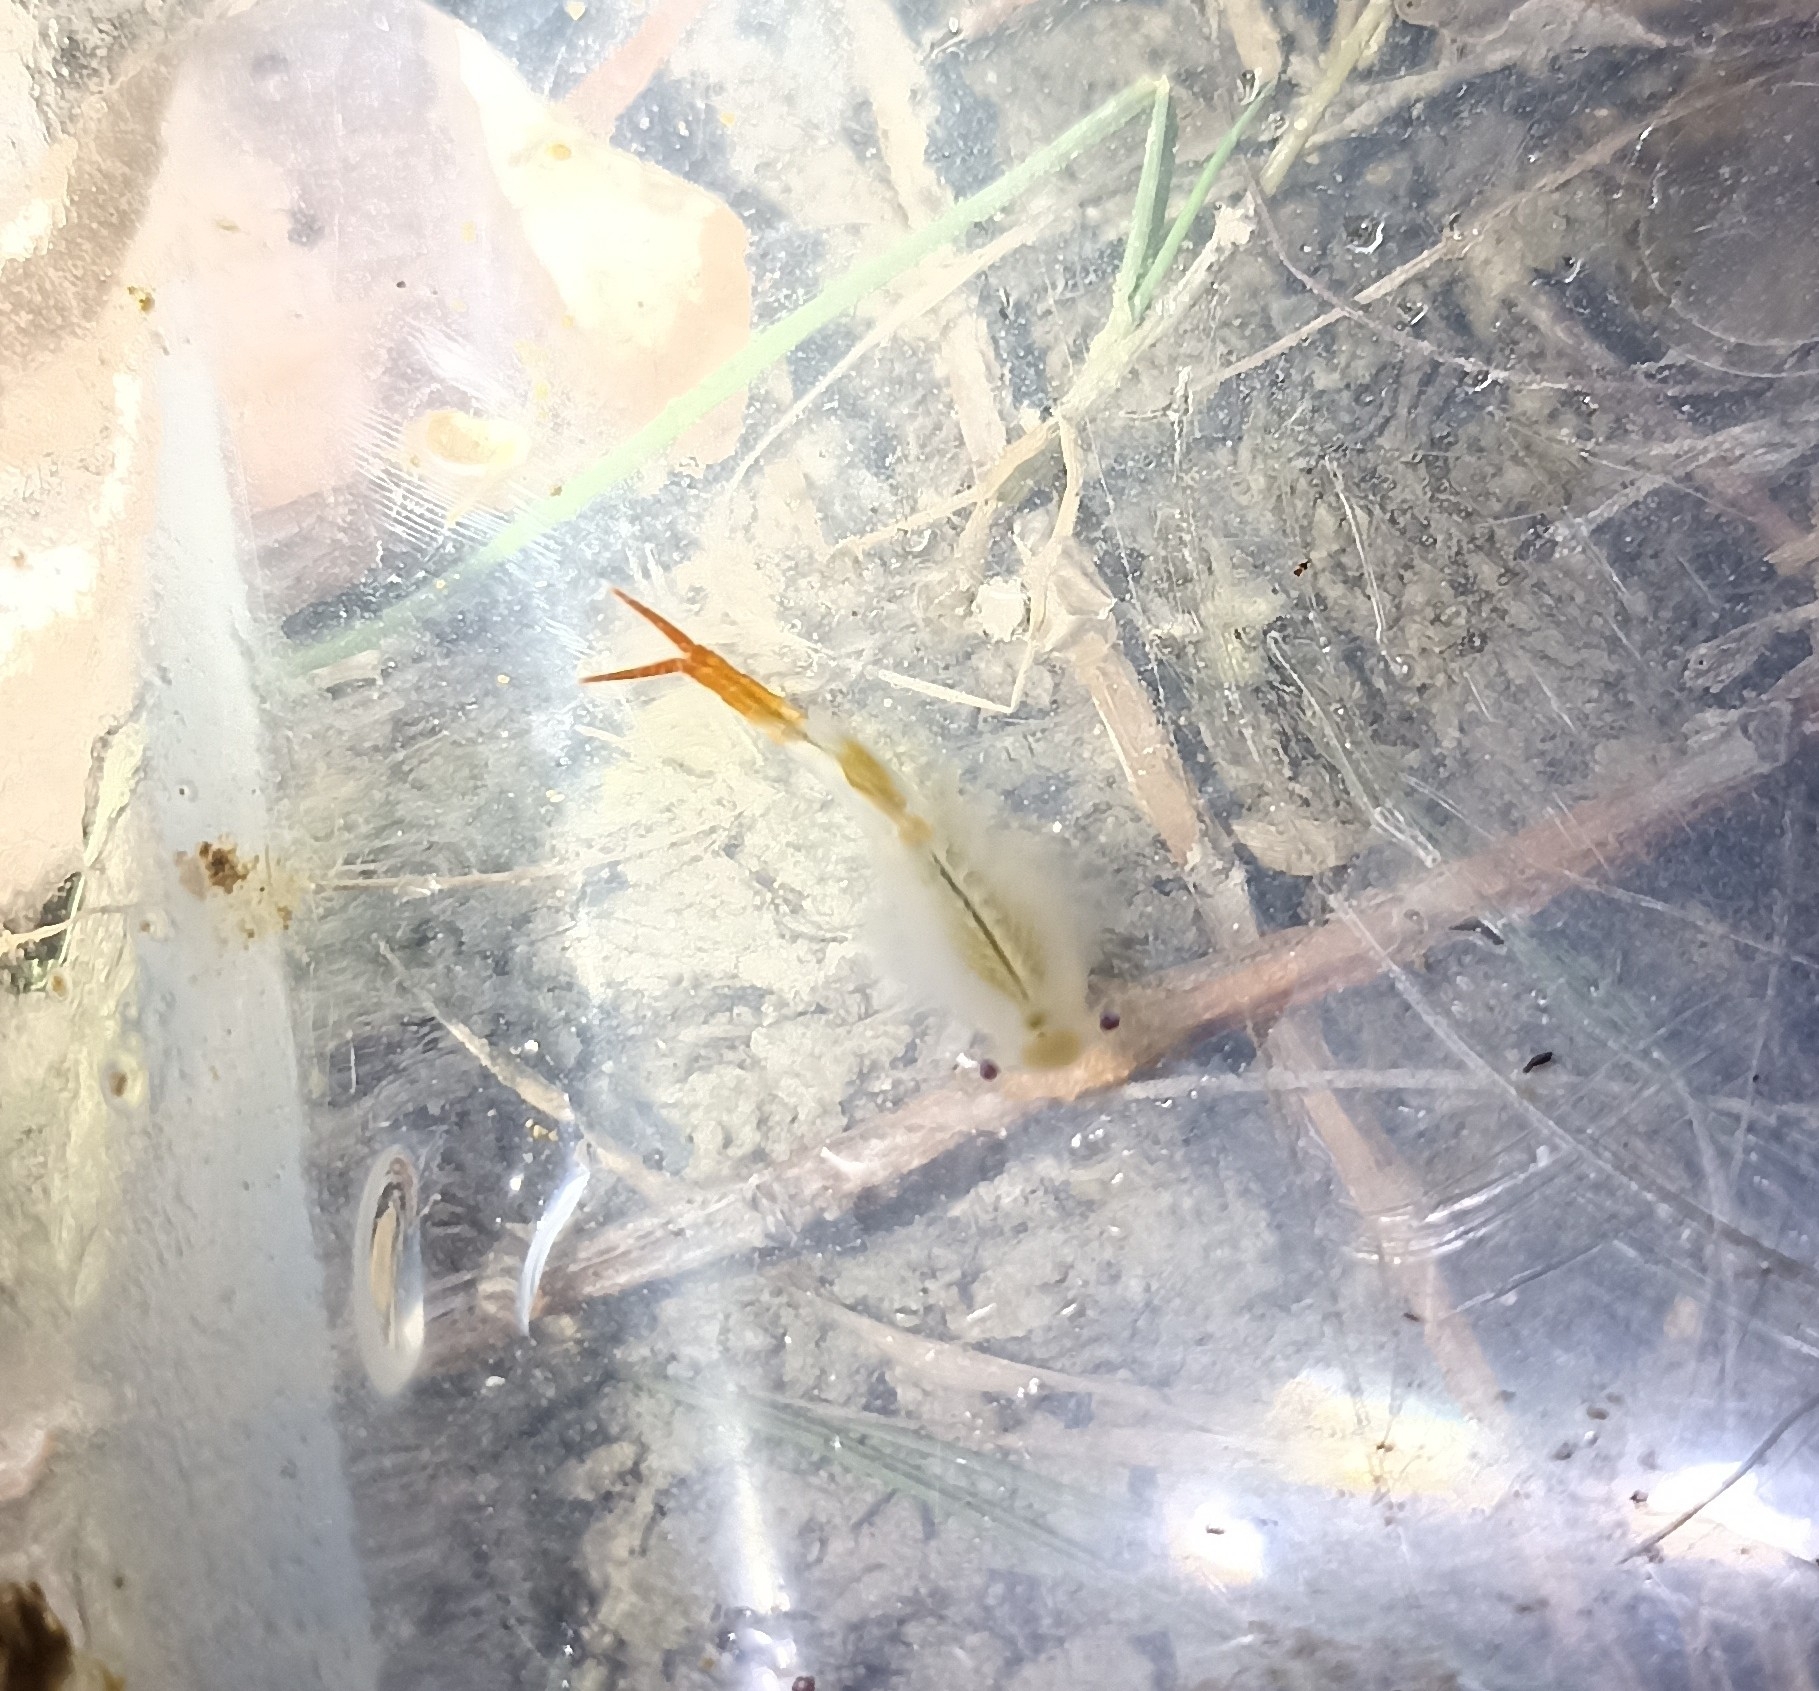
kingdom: Animalia
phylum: Arthropoda
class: Branchiopoda
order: Anostraca
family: Chirocephalidae
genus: Chirocephalus
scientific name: Chirocephalus diaphanus
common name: Fairy shrimp
